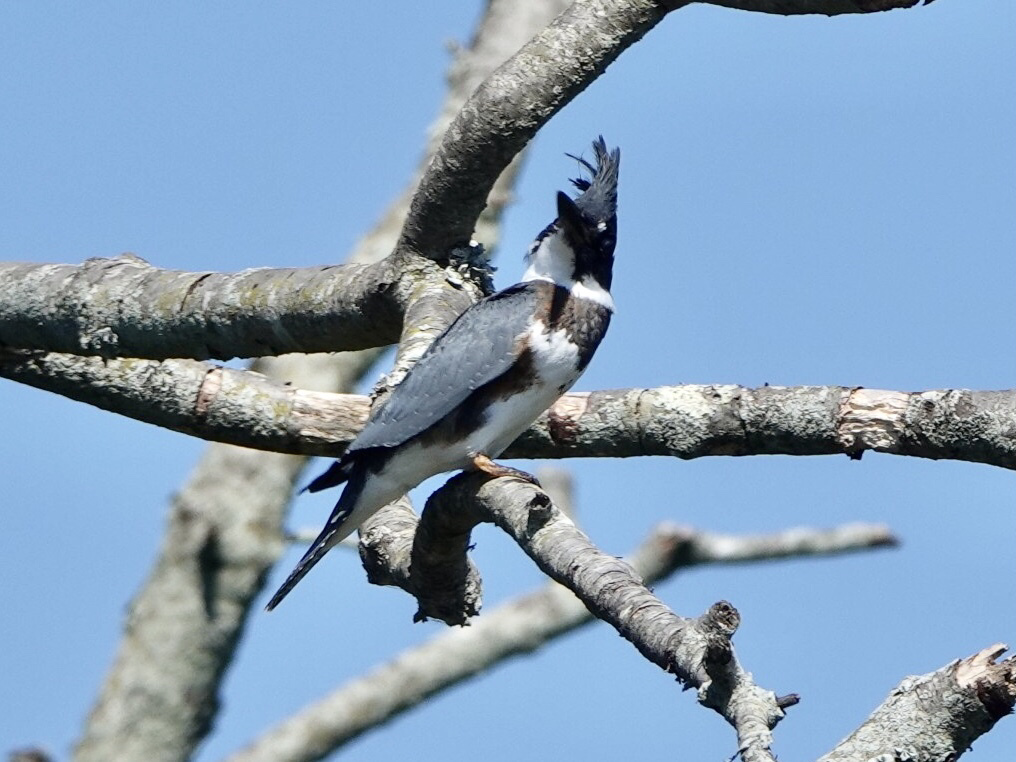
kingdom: Animalia
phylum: Chordata
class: Aves
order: Coraciiformes
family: Alcedinidae
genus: Megaceryle
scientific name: Megaceryle alcyon
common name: Belted kingfisher
